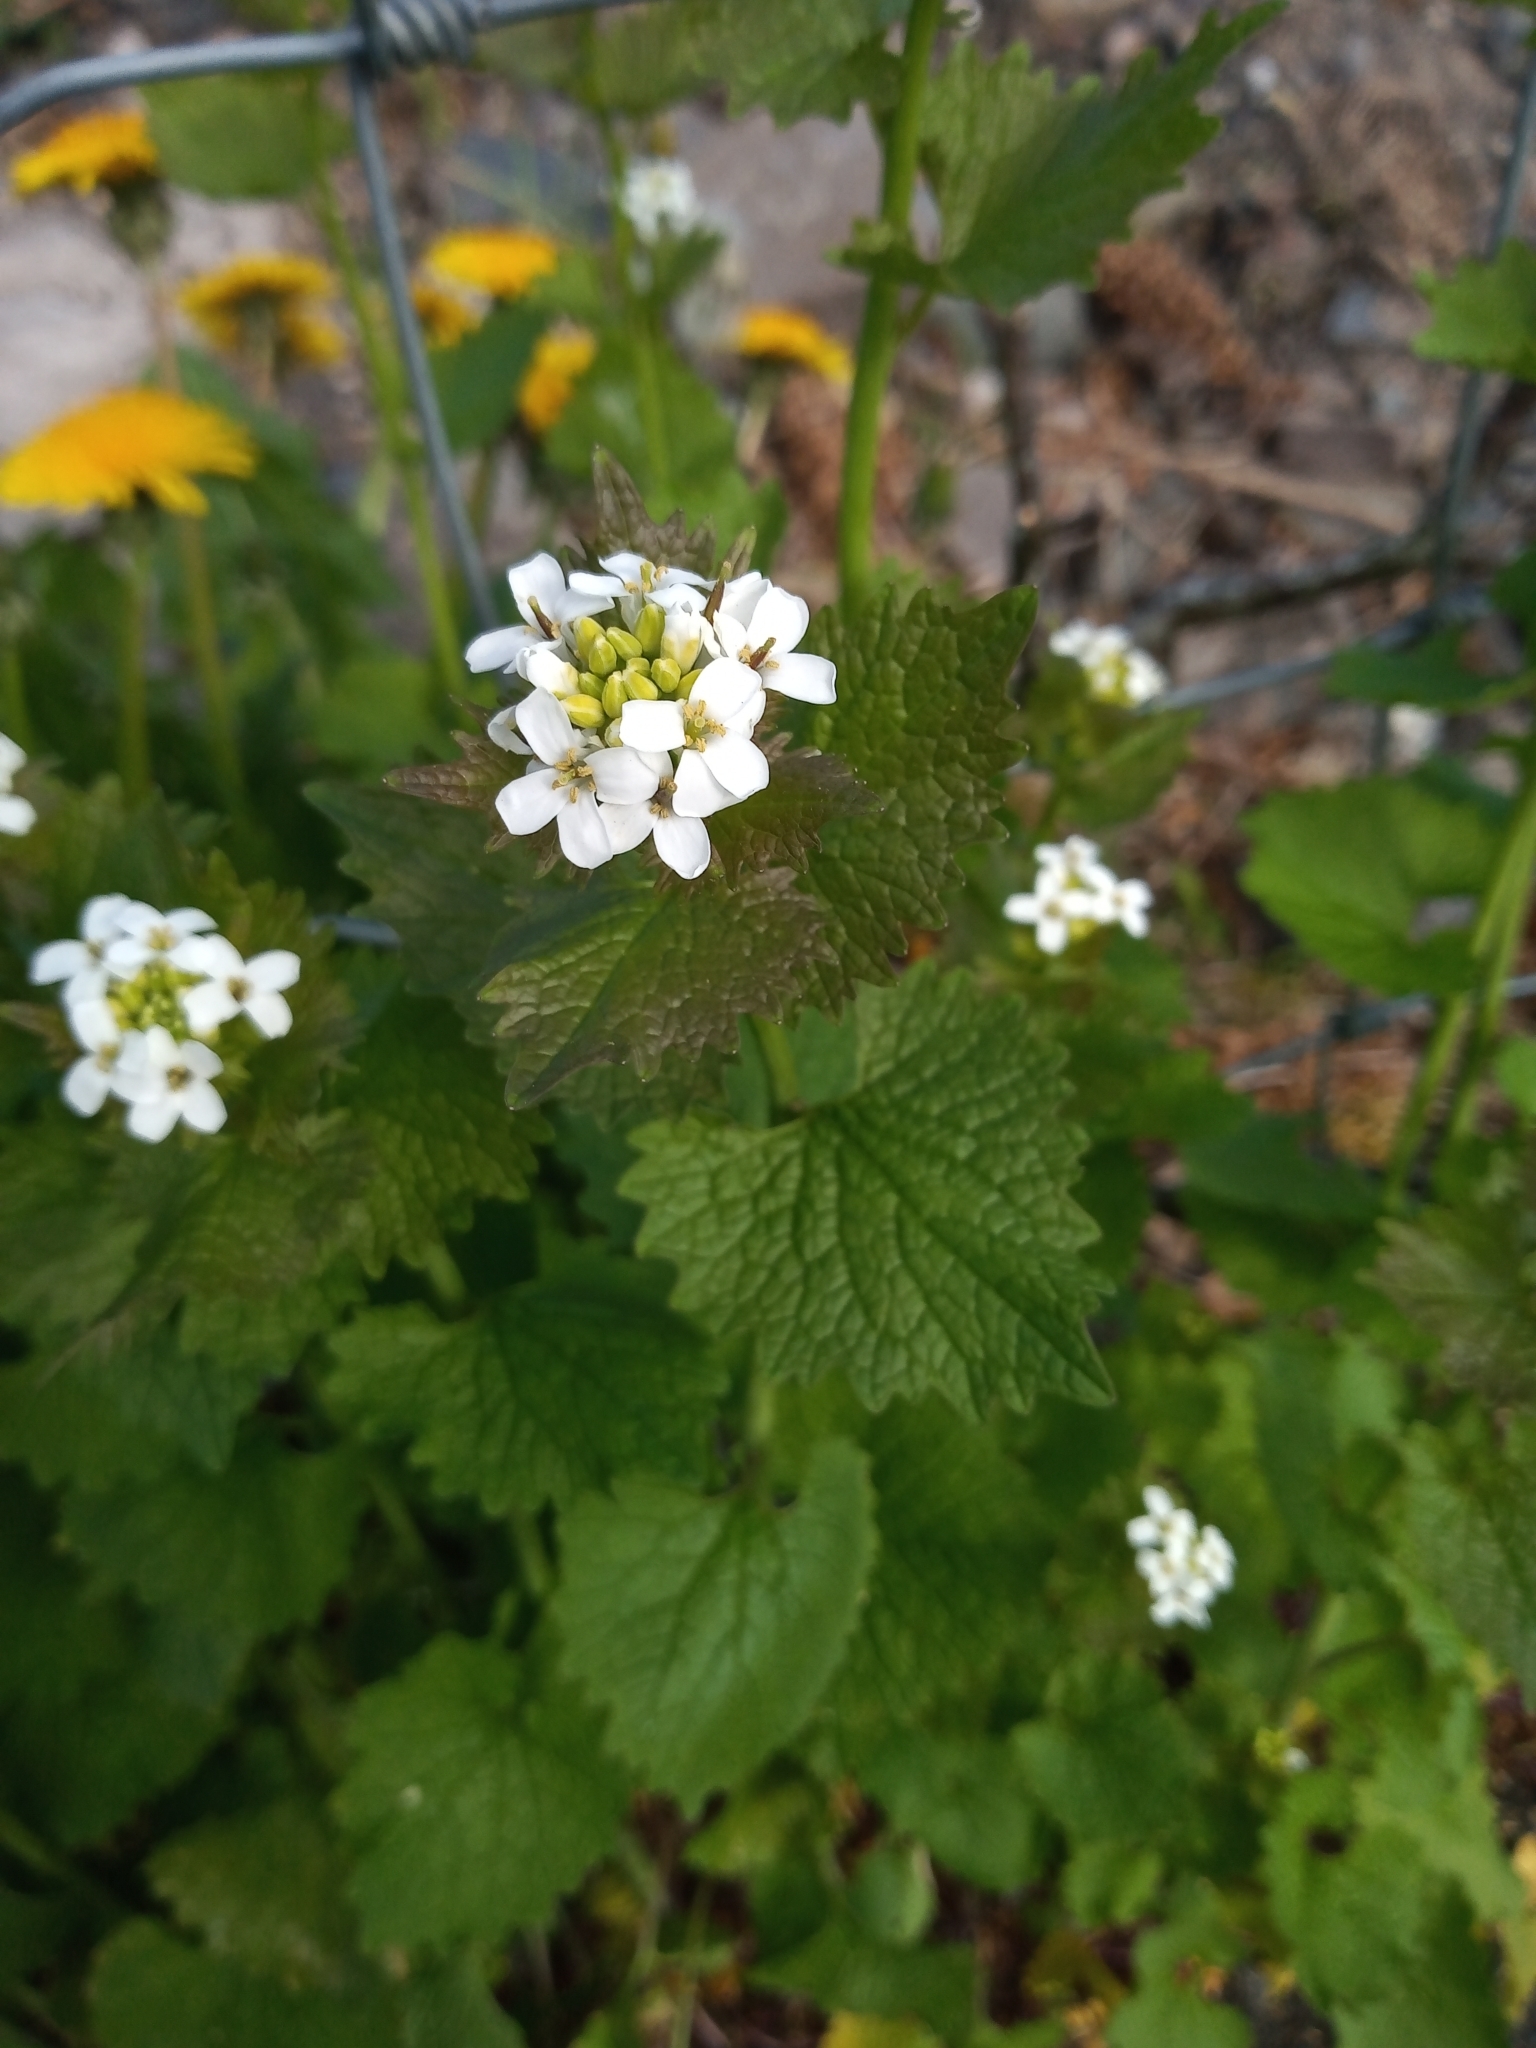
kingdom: Plantae
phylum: Tracheophyta
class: Magnoliopsida
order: Asterales
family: Asteraceae
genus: Taraxacum
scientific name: Taraxacum
